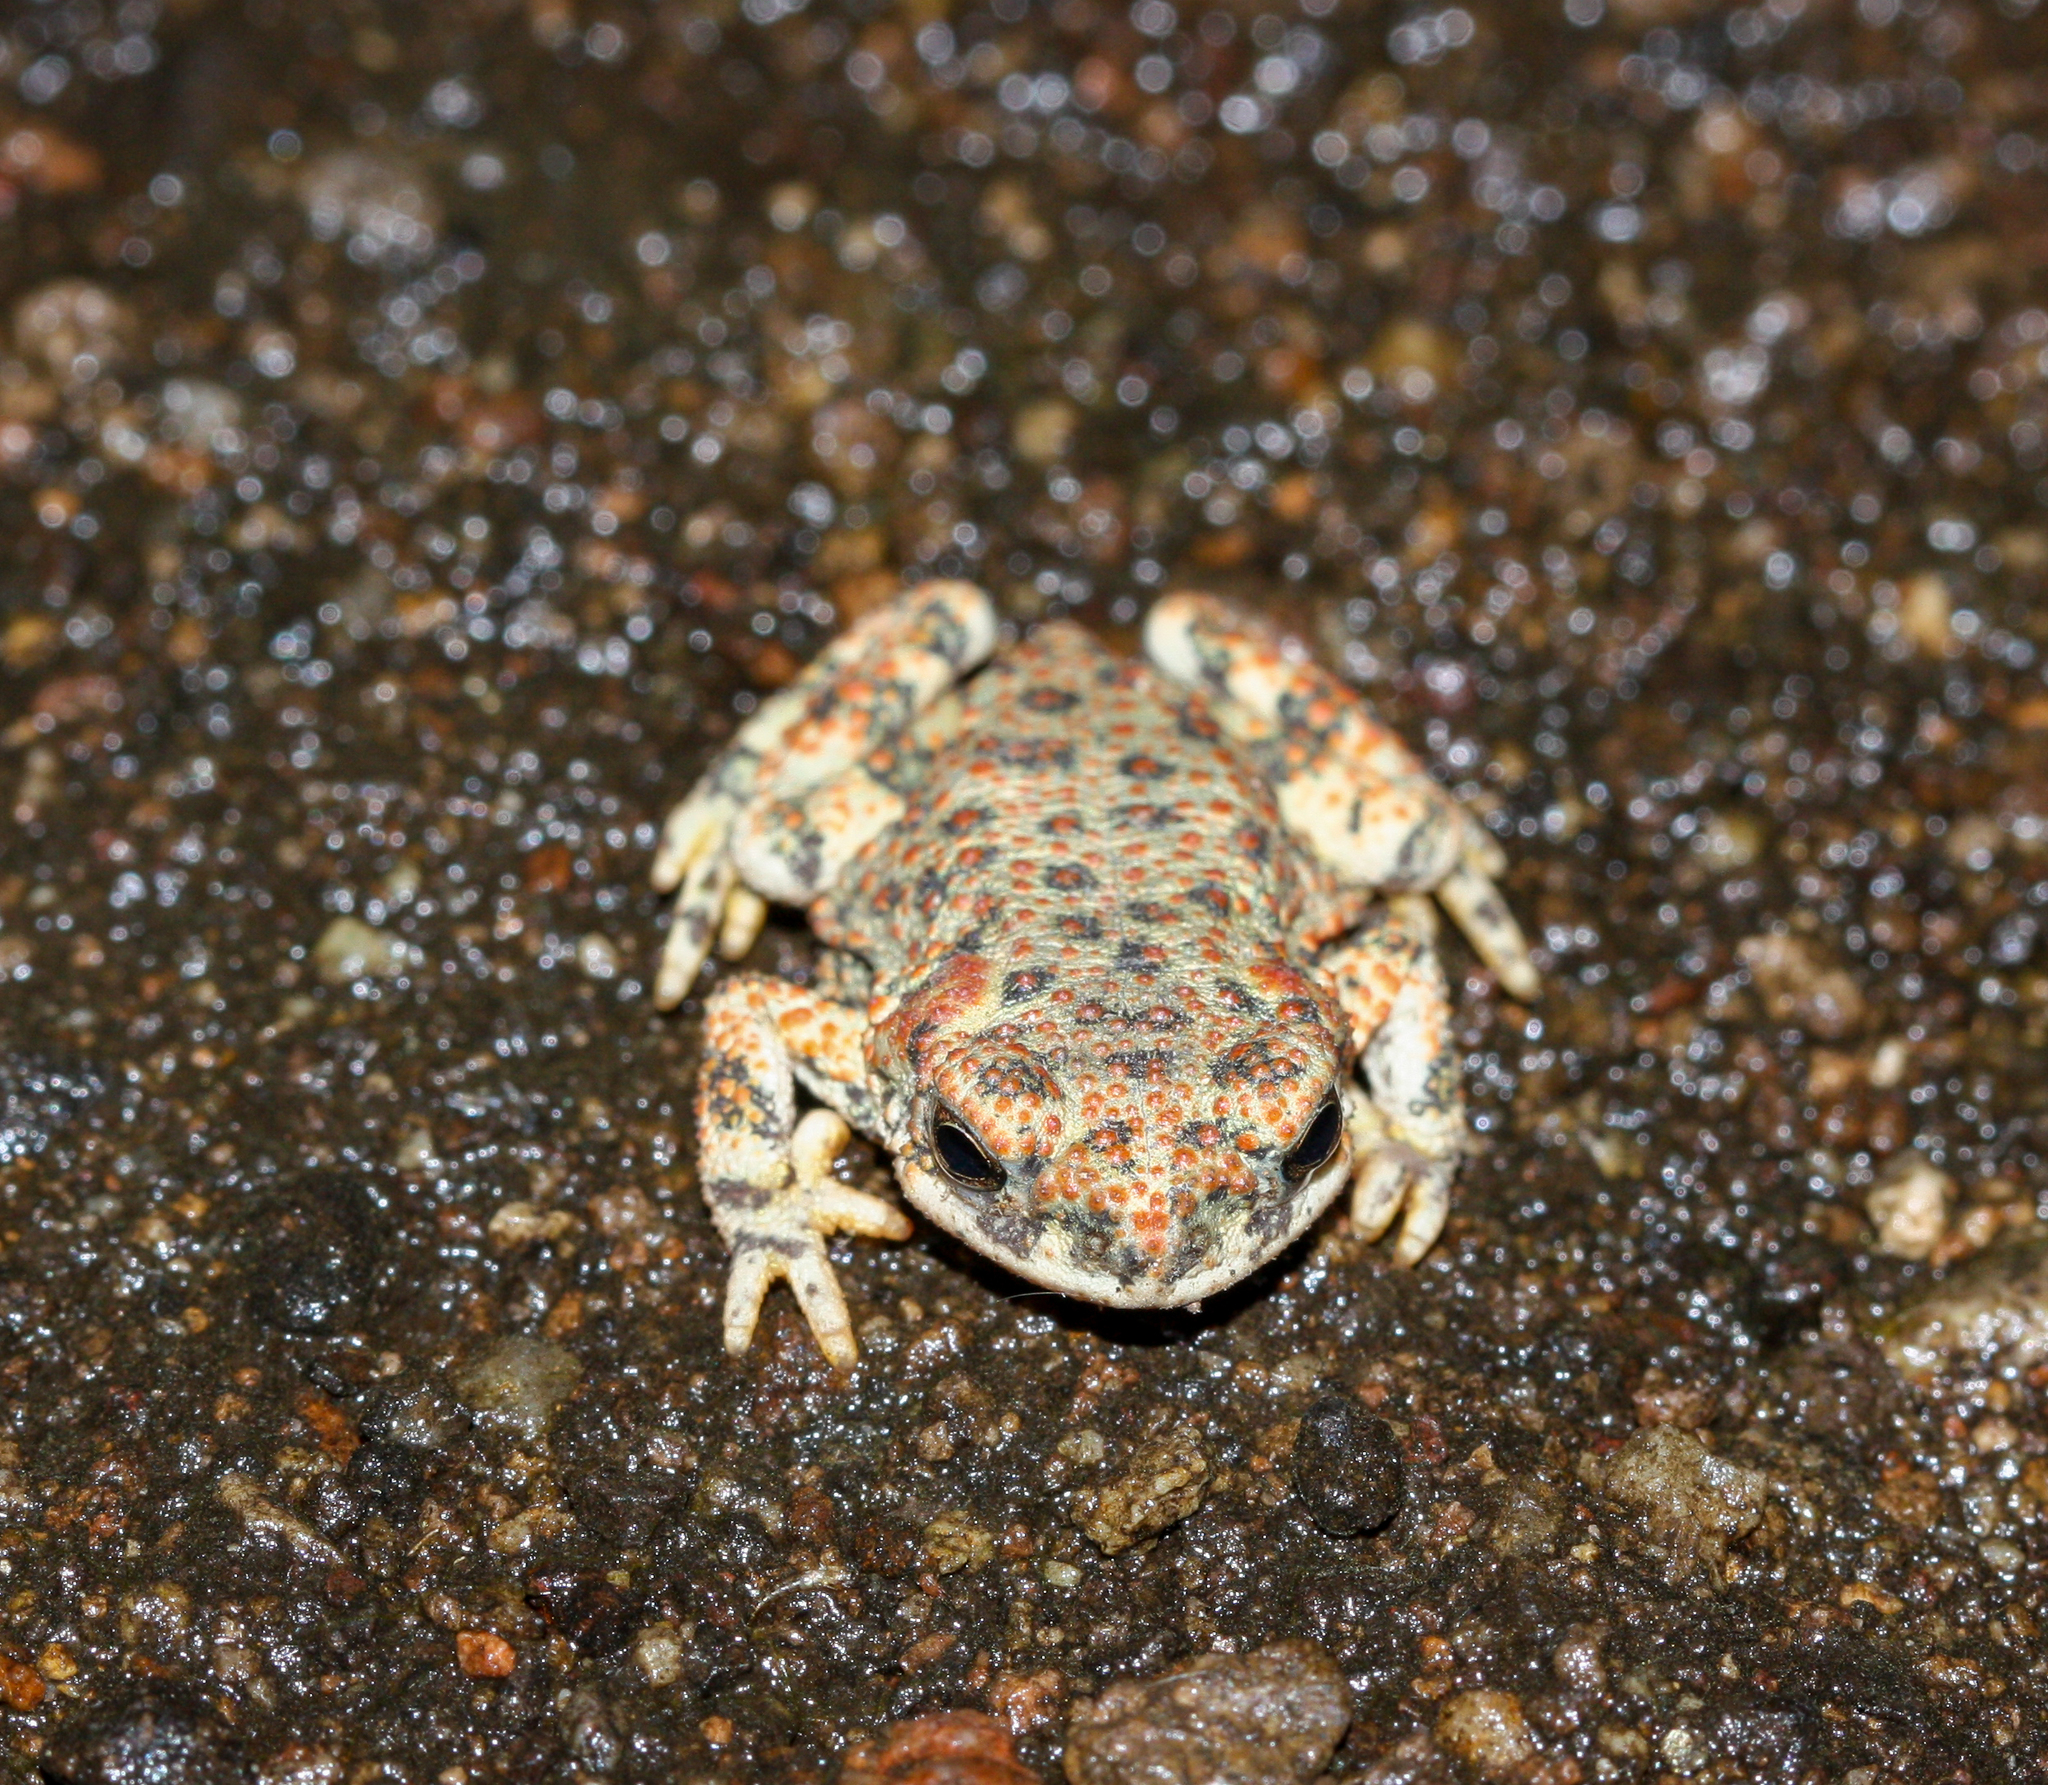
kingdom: Animalia
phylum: Chordata
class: Amphibia
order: Anura
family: Bufonidae
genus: Anaxyrus
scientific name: Anaxyrus punctatus
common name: Red-spotted toad
